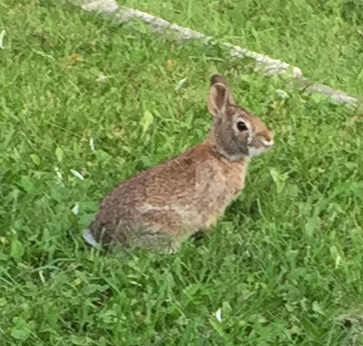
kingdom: Animalia
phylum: Chordata
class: Mammalia
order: Lagomorpha
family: Leporidae
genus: Sylvilagus
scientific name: Sylvilagus floridanus
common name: Eastern cottontail
